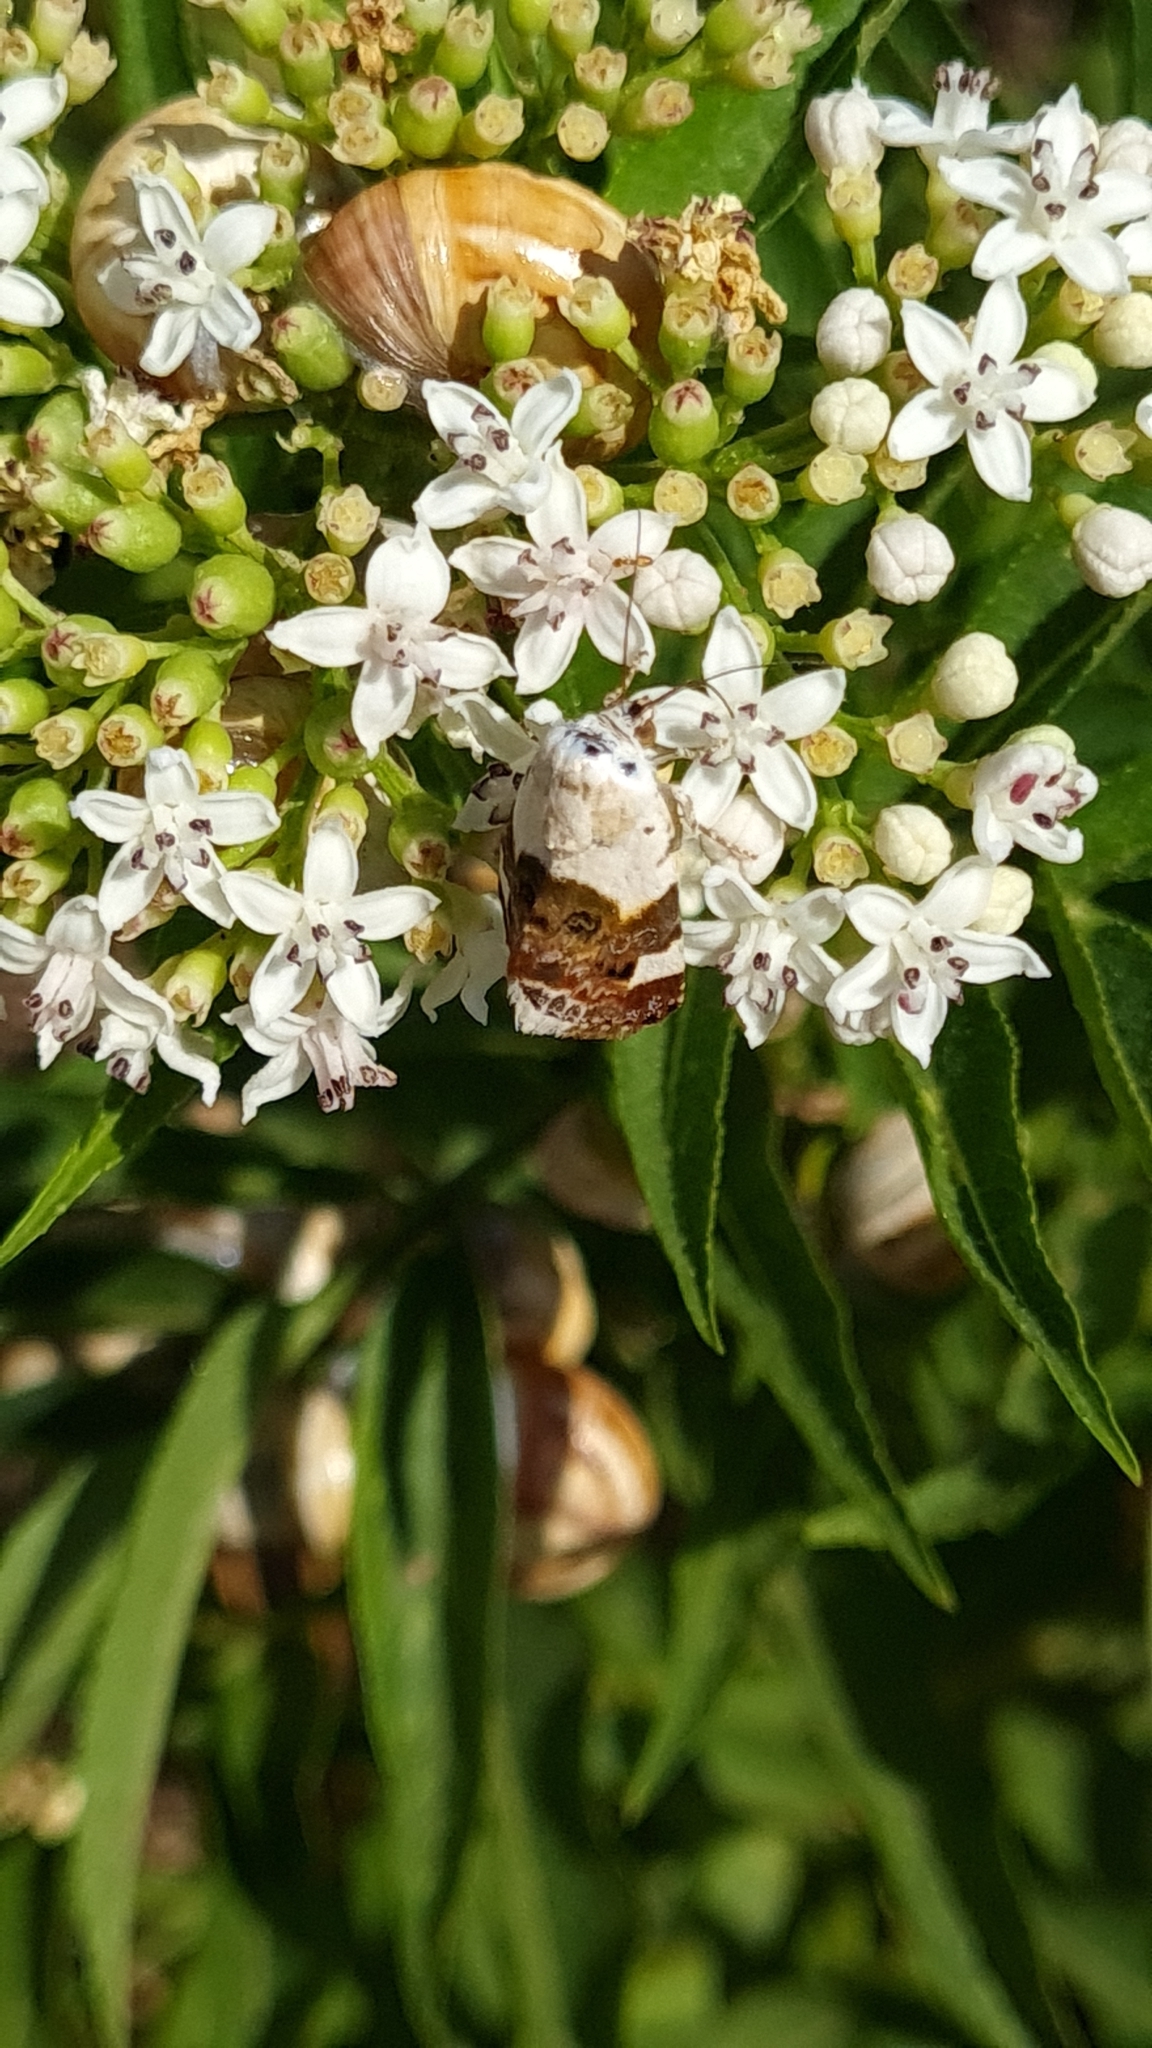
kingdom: Animalia
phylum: Arthropoda
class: Insecta
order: Lepidoptera
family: Noctuidae
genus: Acontia
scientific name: Acontia lucida
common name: Pale shoulder
